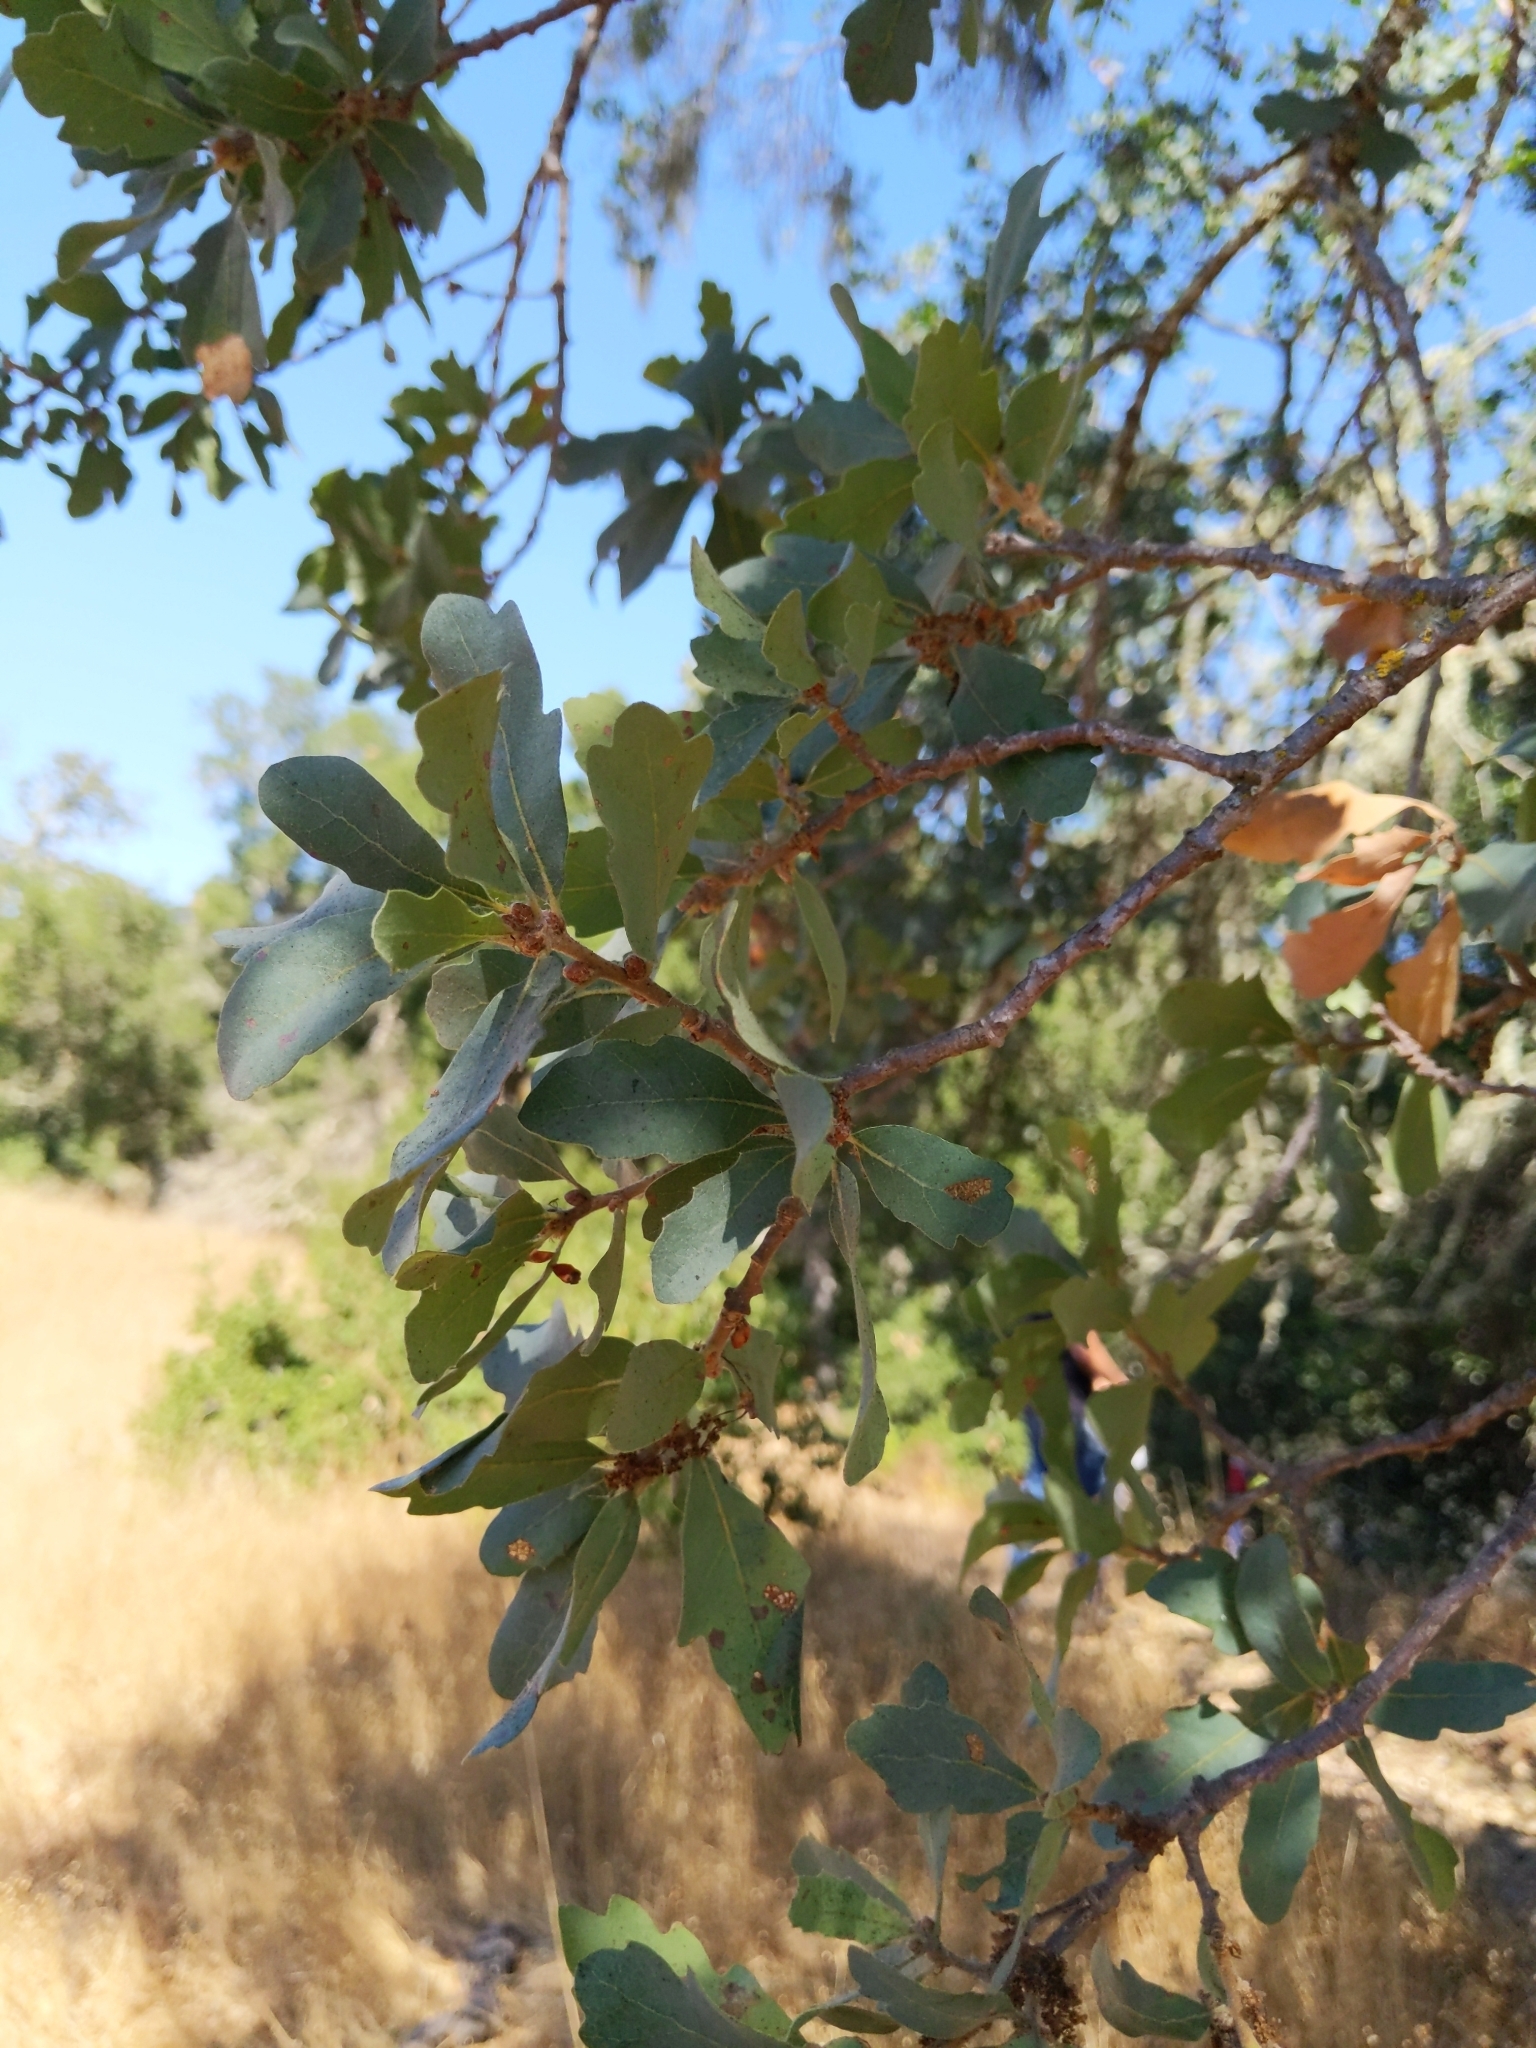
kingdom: Plantae
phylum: Tracheophyta
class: Magnoliopsida
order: Fagales
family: Fagaceae
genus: Quercus
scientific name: Quercus douglasii
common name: Blue oak
